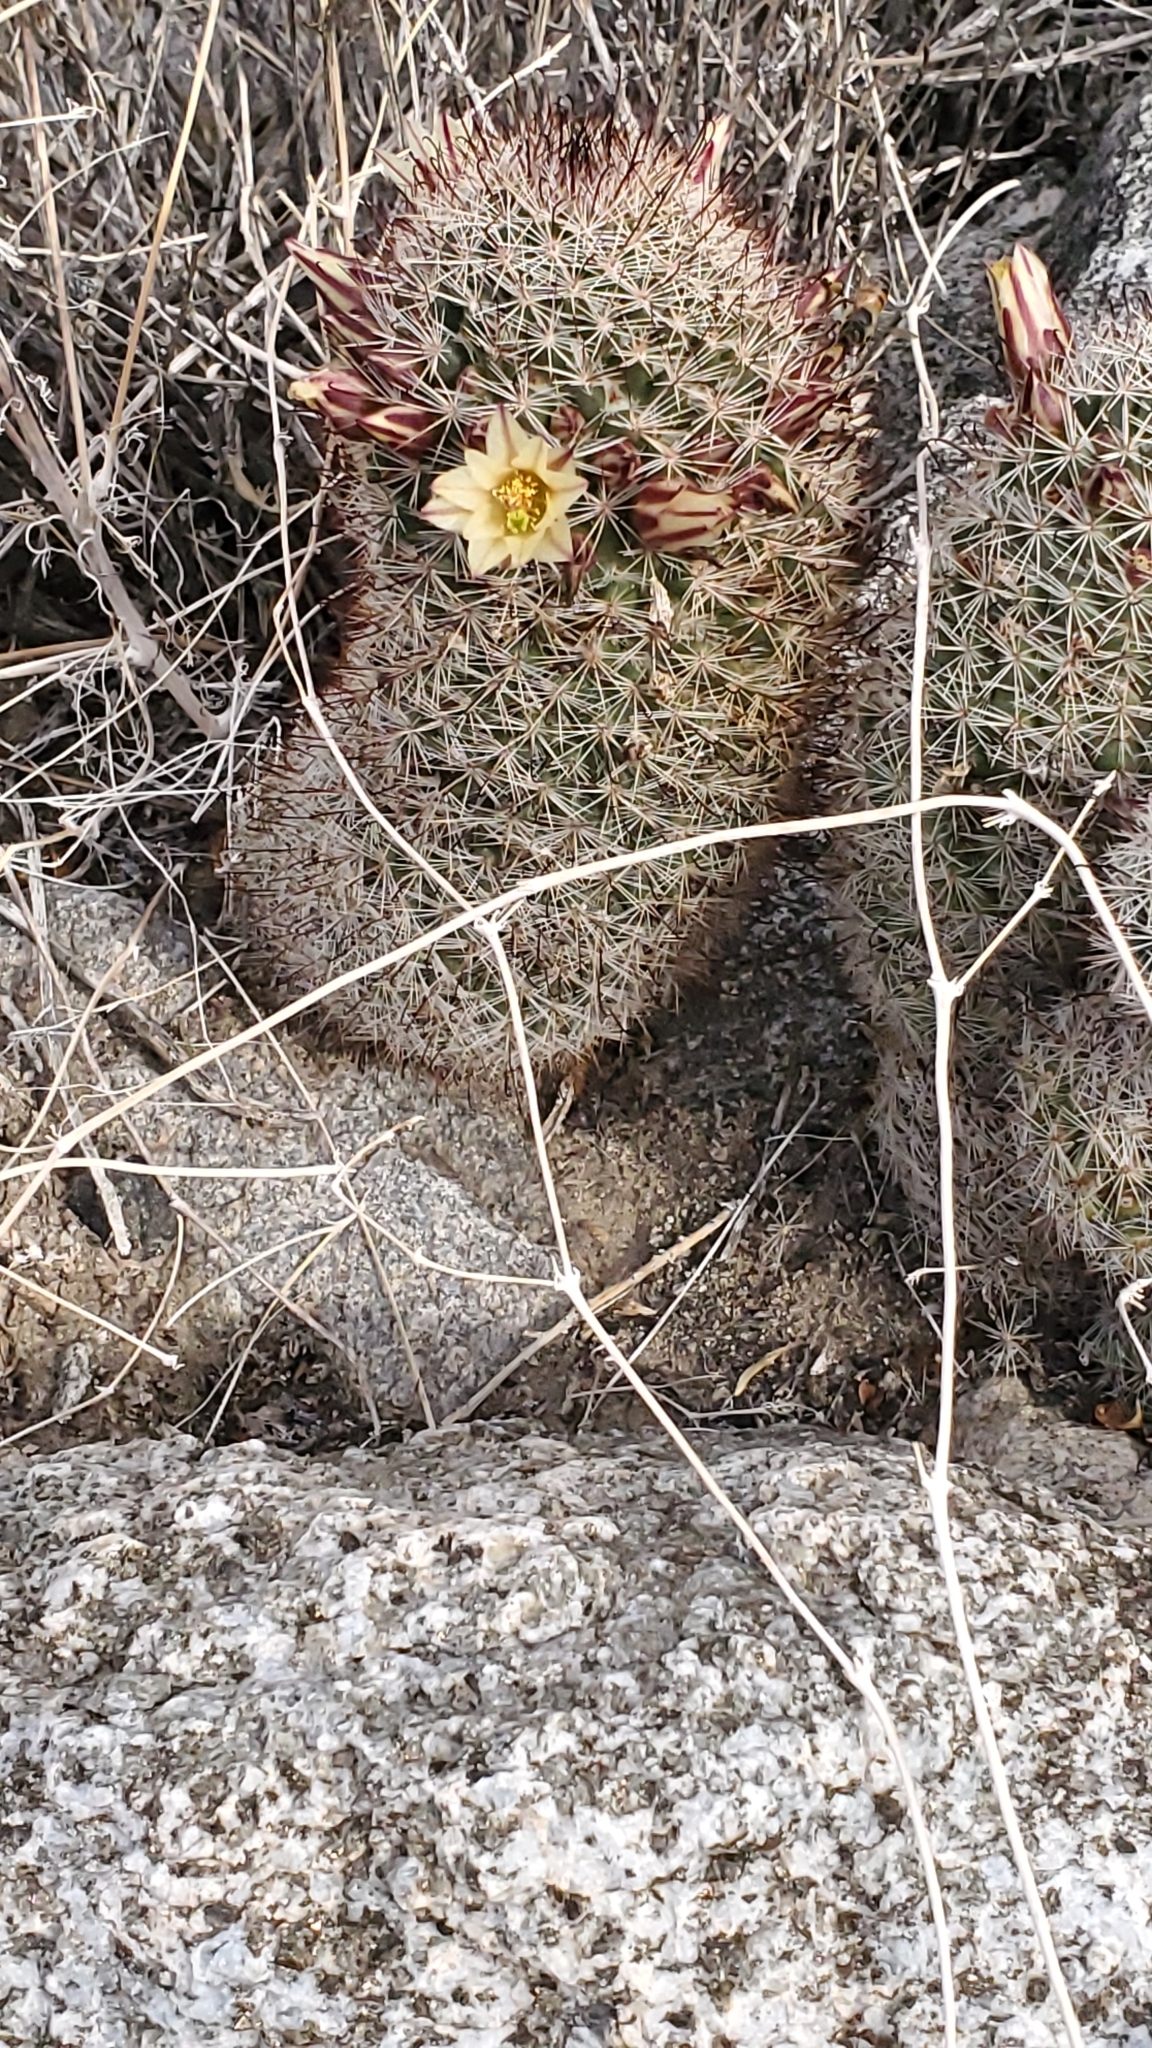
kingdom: Plantae
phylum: Tracheophyta
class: Magnoliopsida
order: Caryophyllales
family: Cactaceae
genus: Cochemiea
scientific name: Cochemiea dioica
